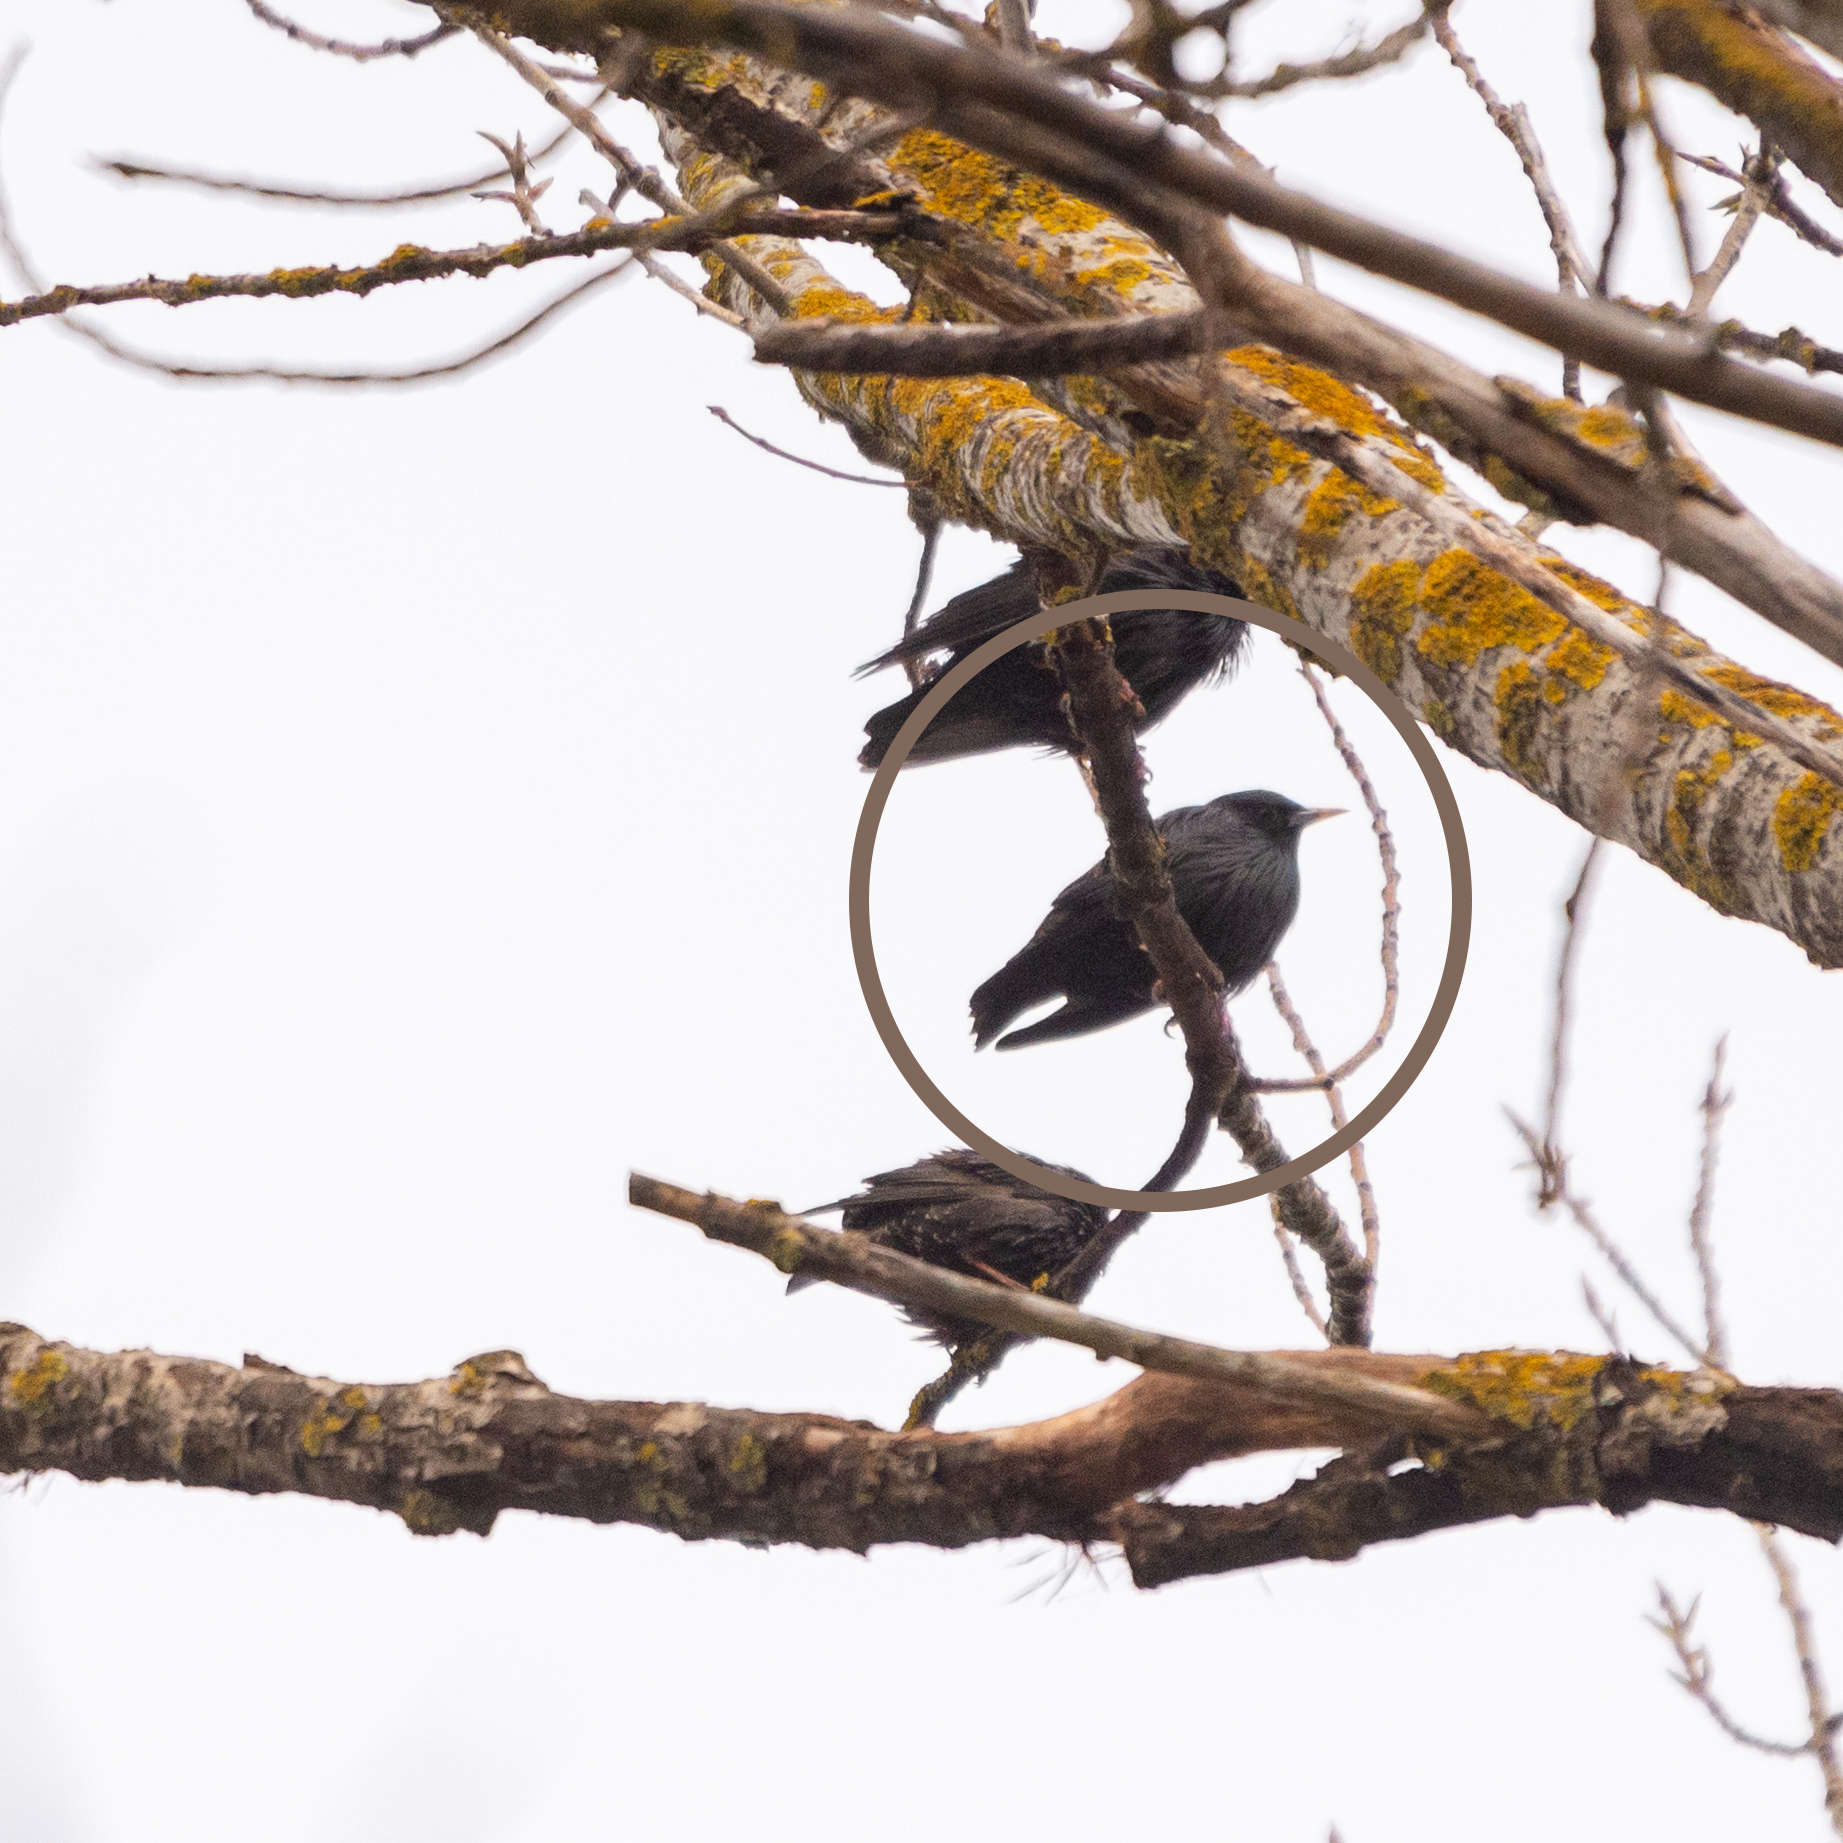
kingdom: Animalia
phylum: Chordata
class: Aves
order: Passeriformes
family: Sturnidae
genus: Sturnus
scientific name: Sturnus unicolor
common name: Spotless starling
